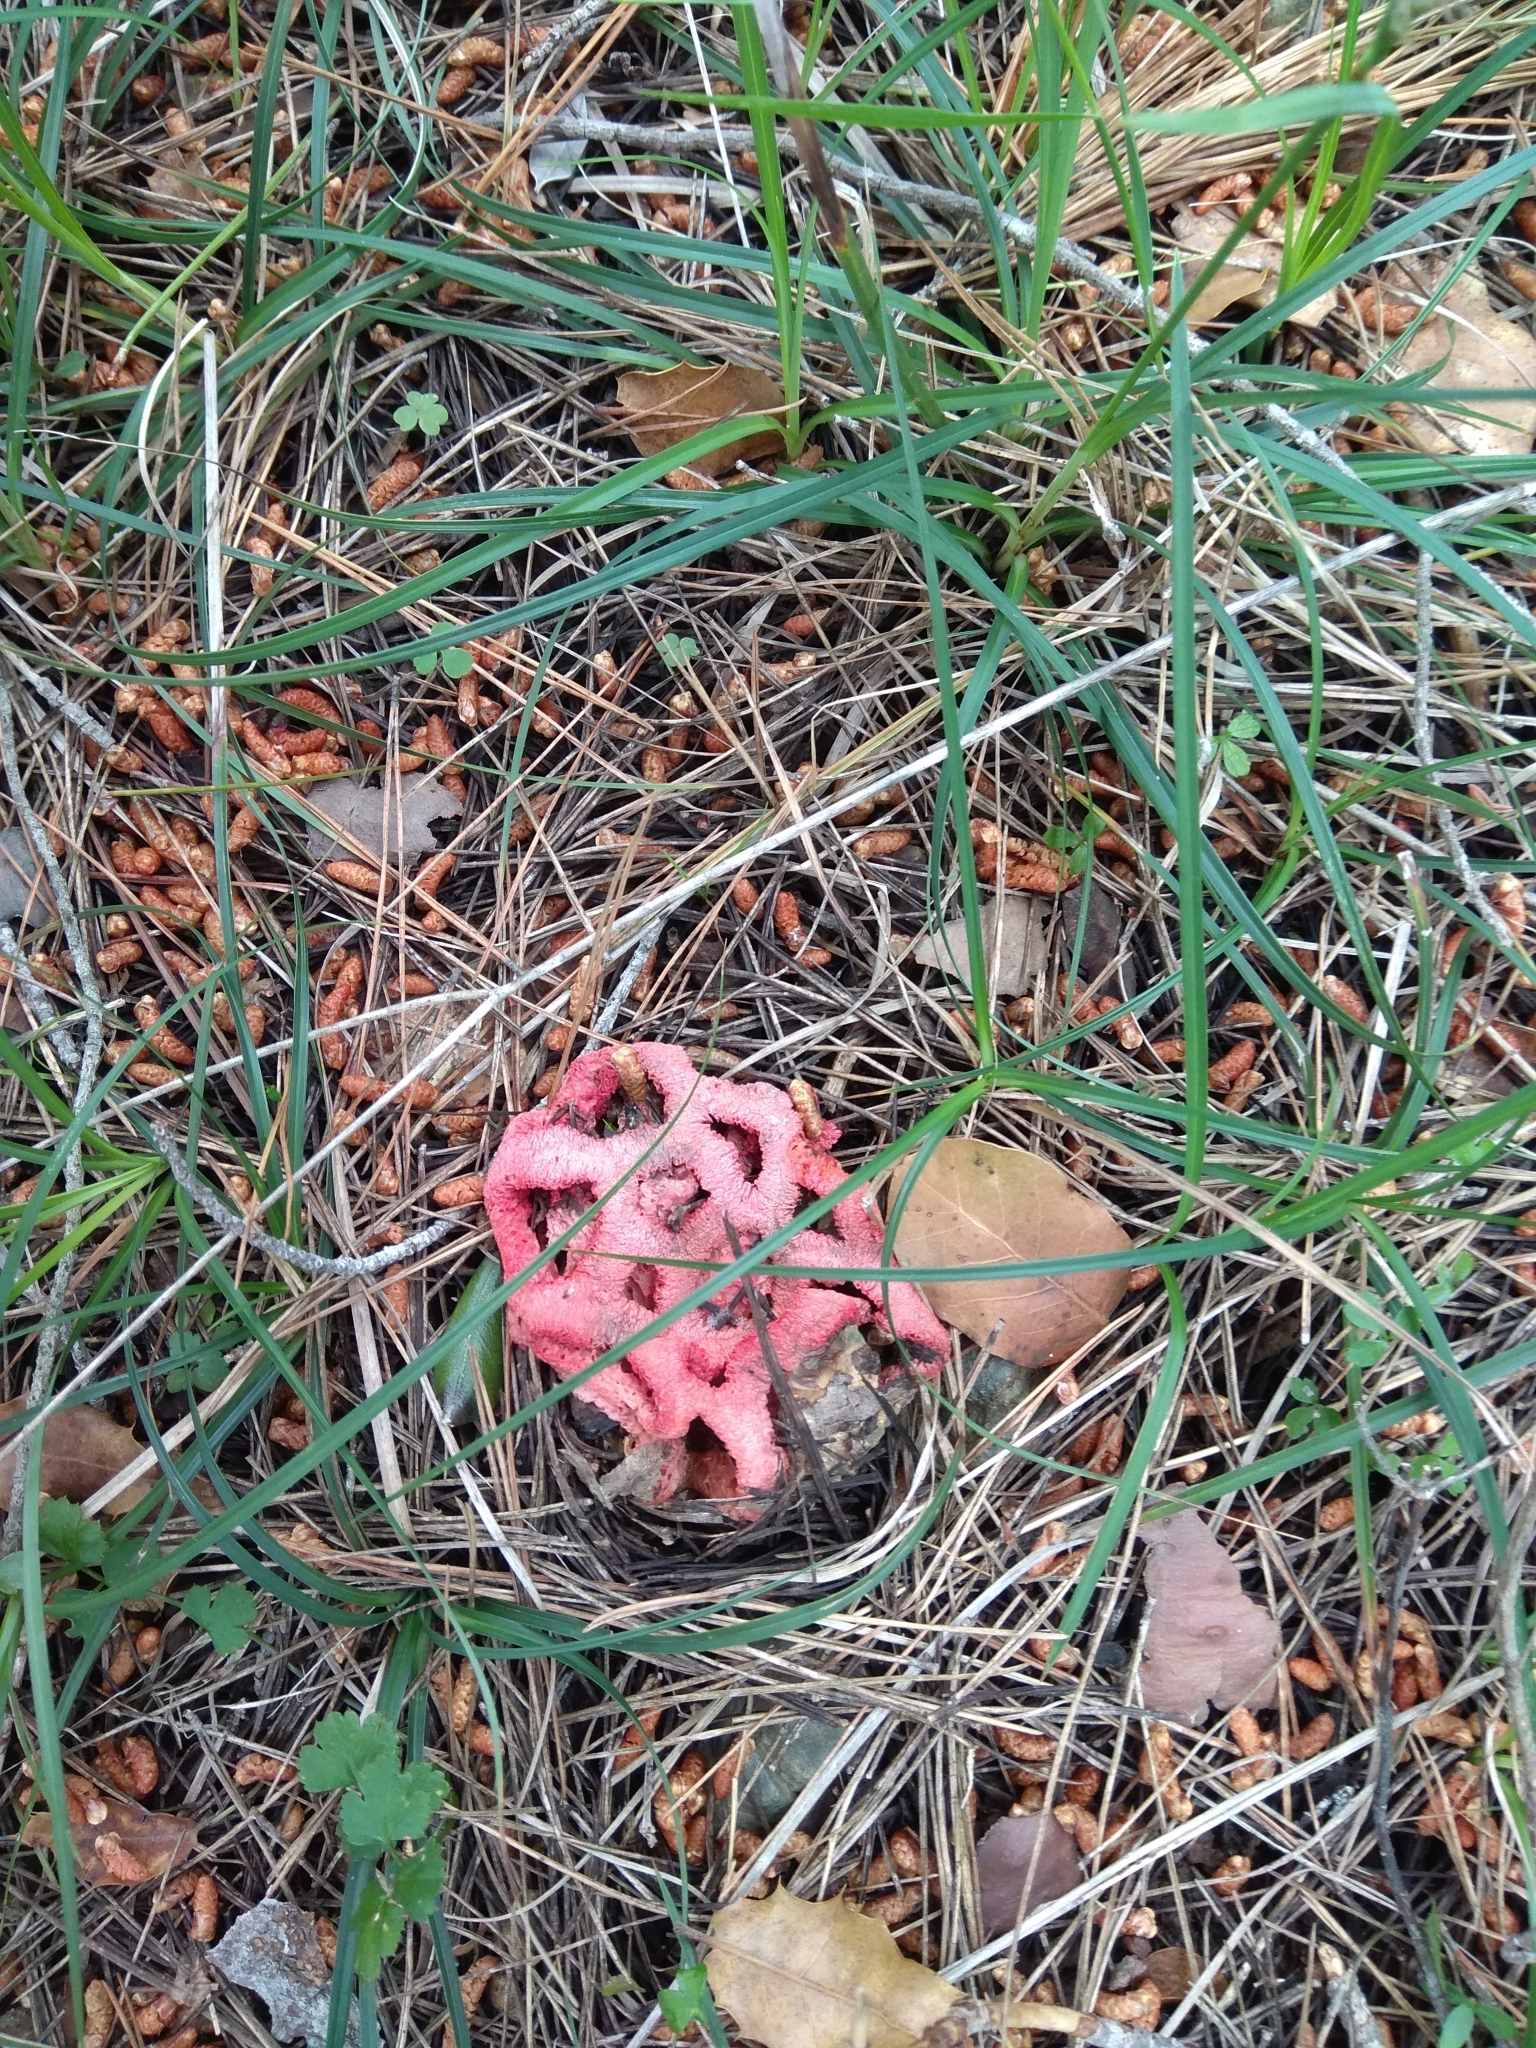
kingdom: Fungi
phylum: Basidiomycota
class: Agaricomycetes
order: Phallales
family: Phallaceae
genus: Clathrus
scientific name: Clathrus ruber
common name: Red cage
